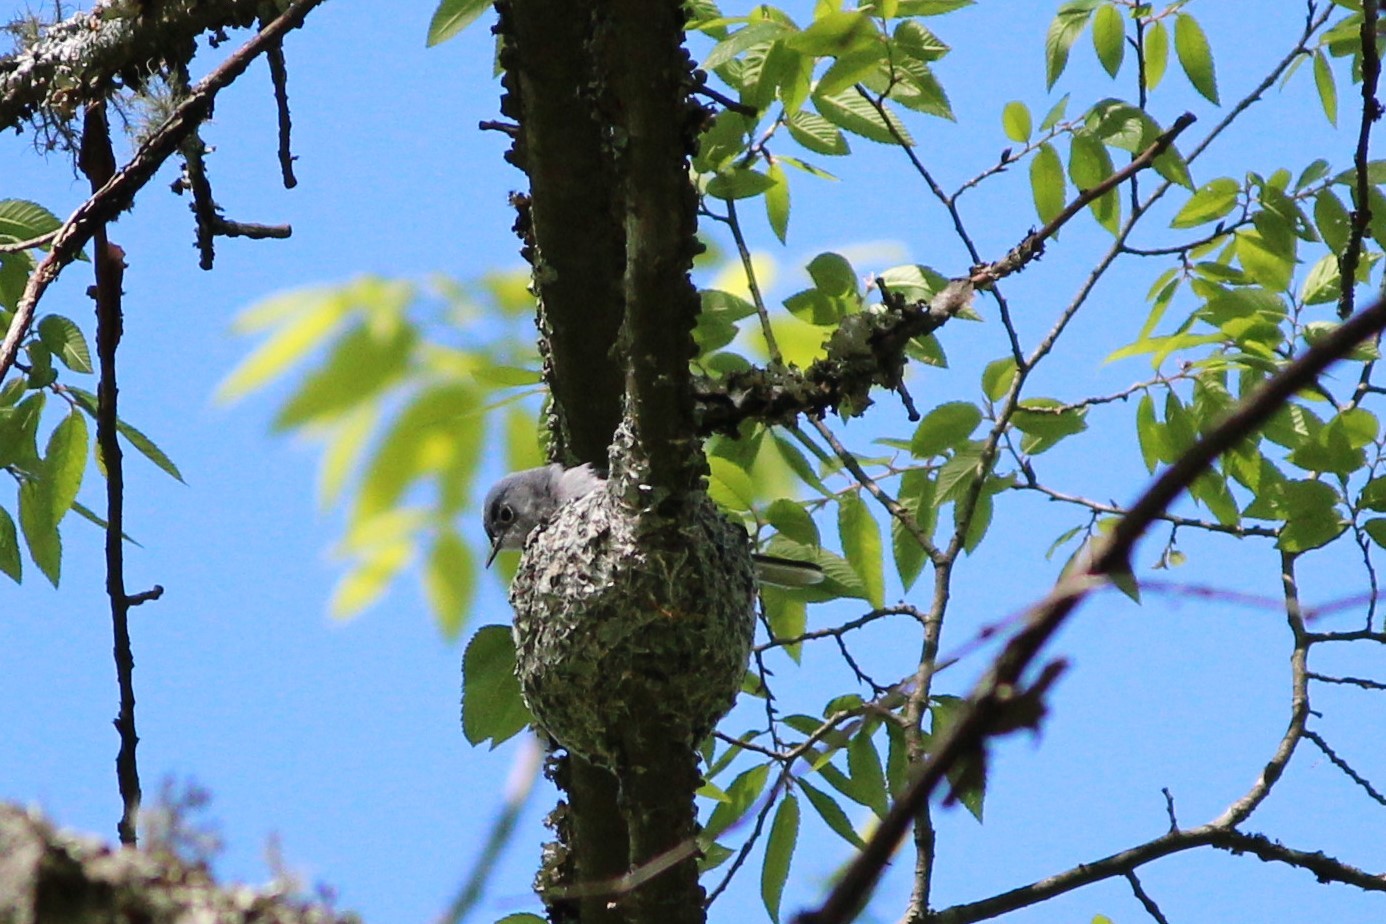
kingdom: Animalia
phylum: Chordata
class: Aves
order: Passeriformes
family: Polioptilidae
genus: Polioptila
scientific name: Polioptila caerulea
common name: Blue-gray gnatcatcher
